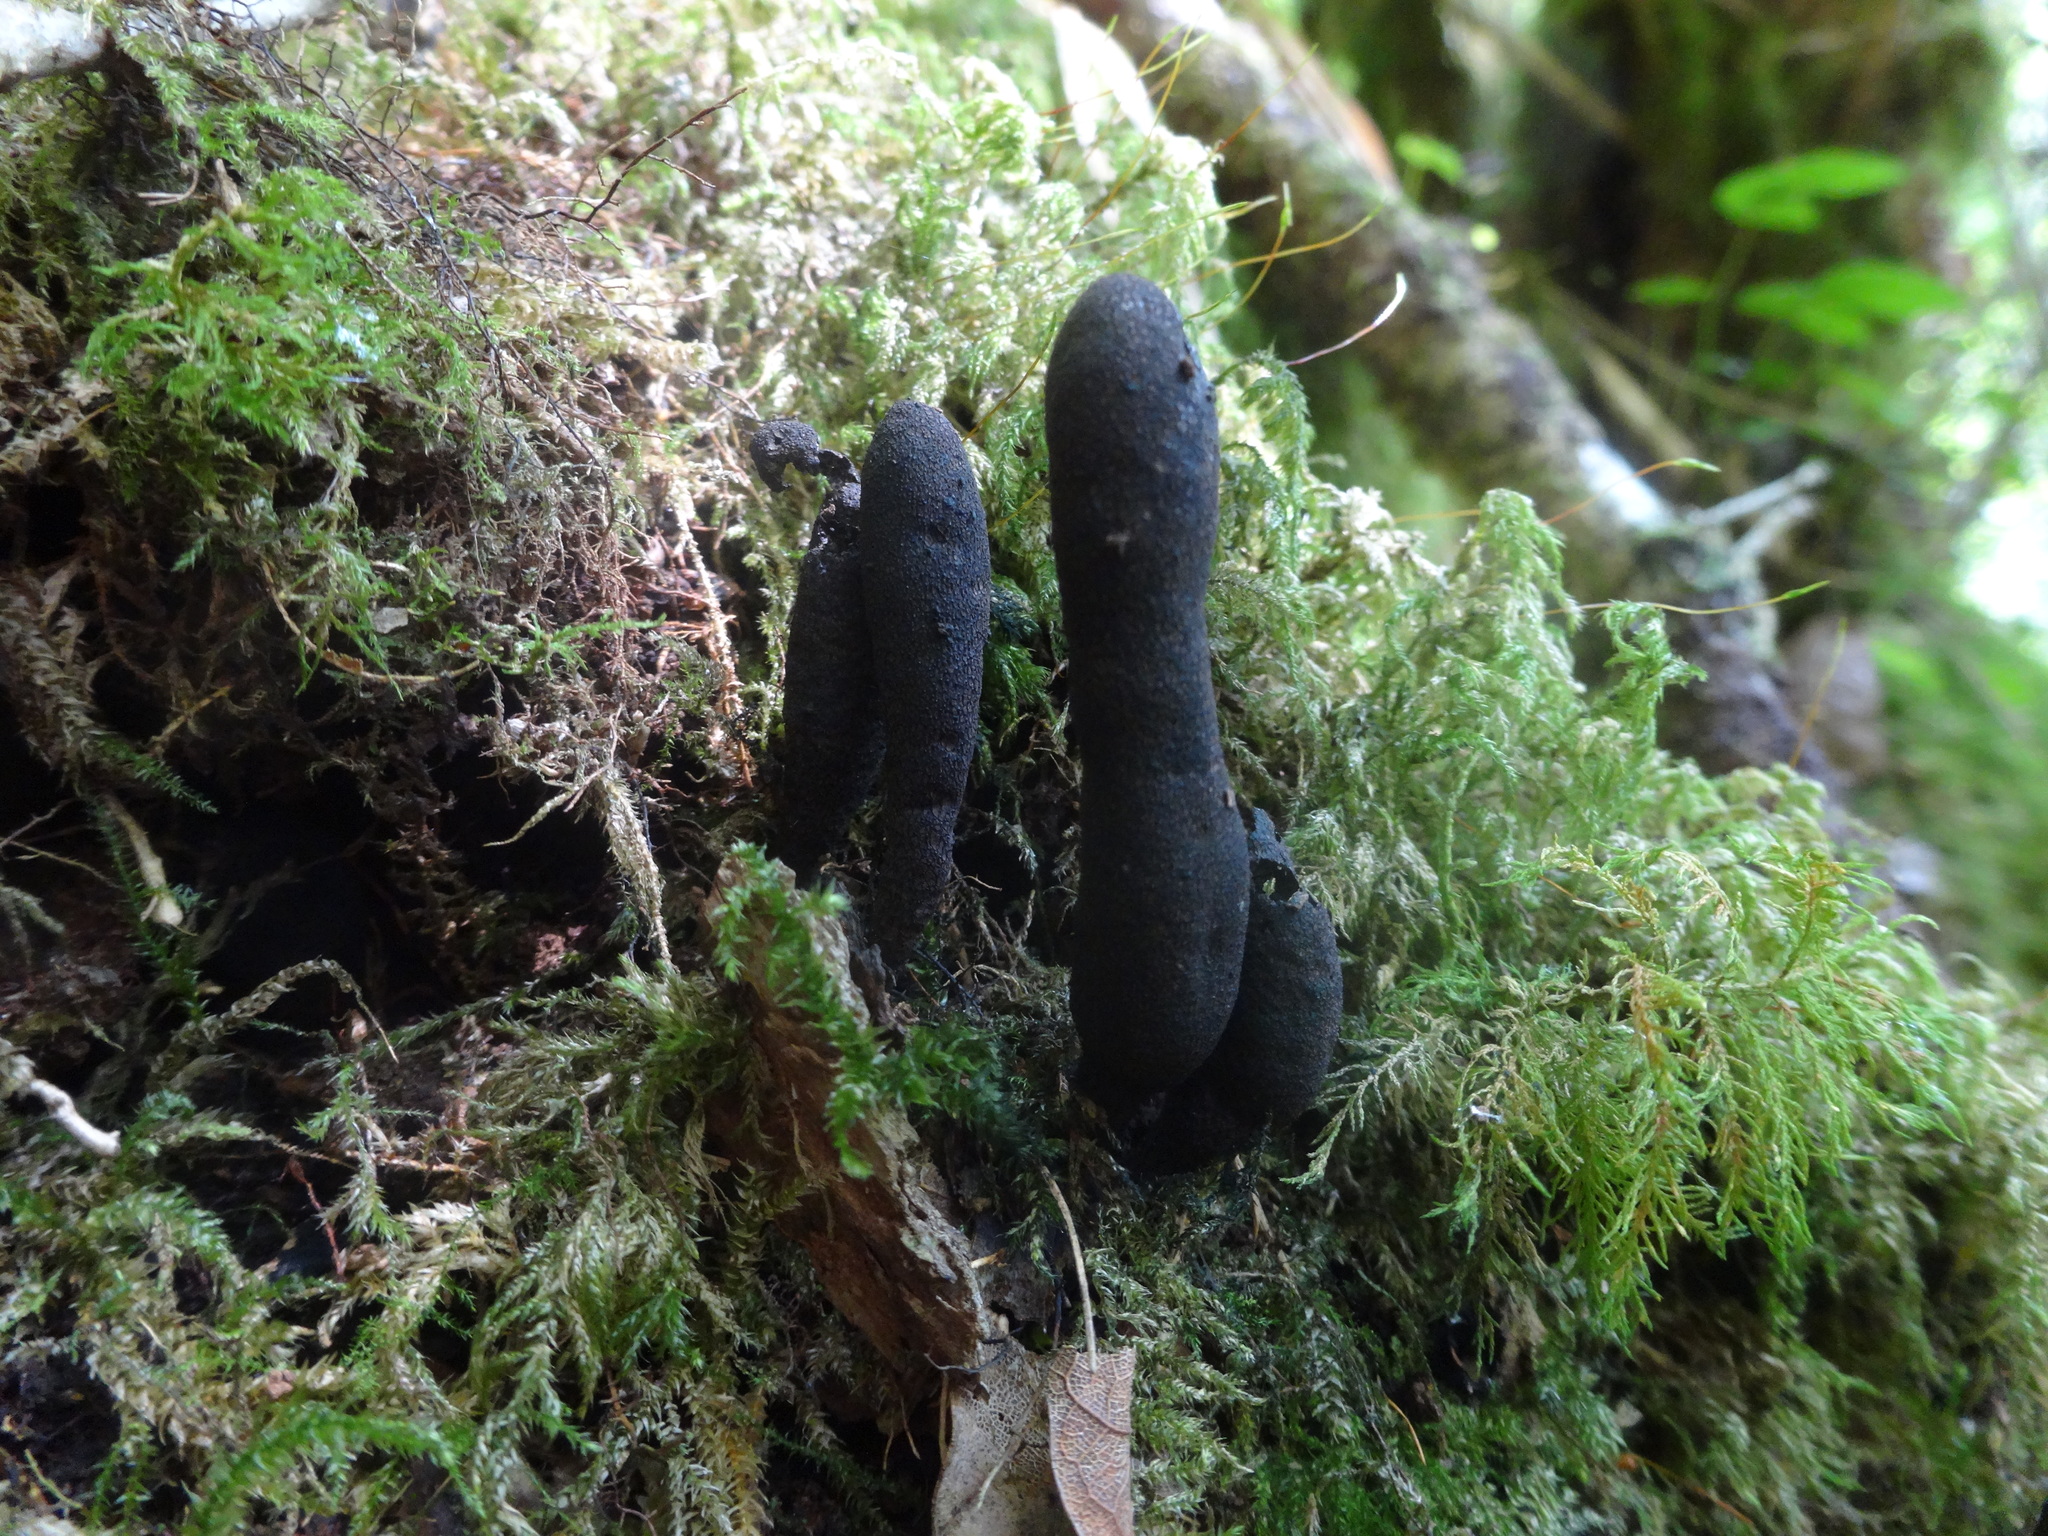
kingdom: Fungi
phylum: Ascomycota
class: Sordariomycetes
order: Xylariales
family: Xylariaceae
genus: Xylaria
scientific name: Xylaria polymorpha
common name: Dead man's fingers
